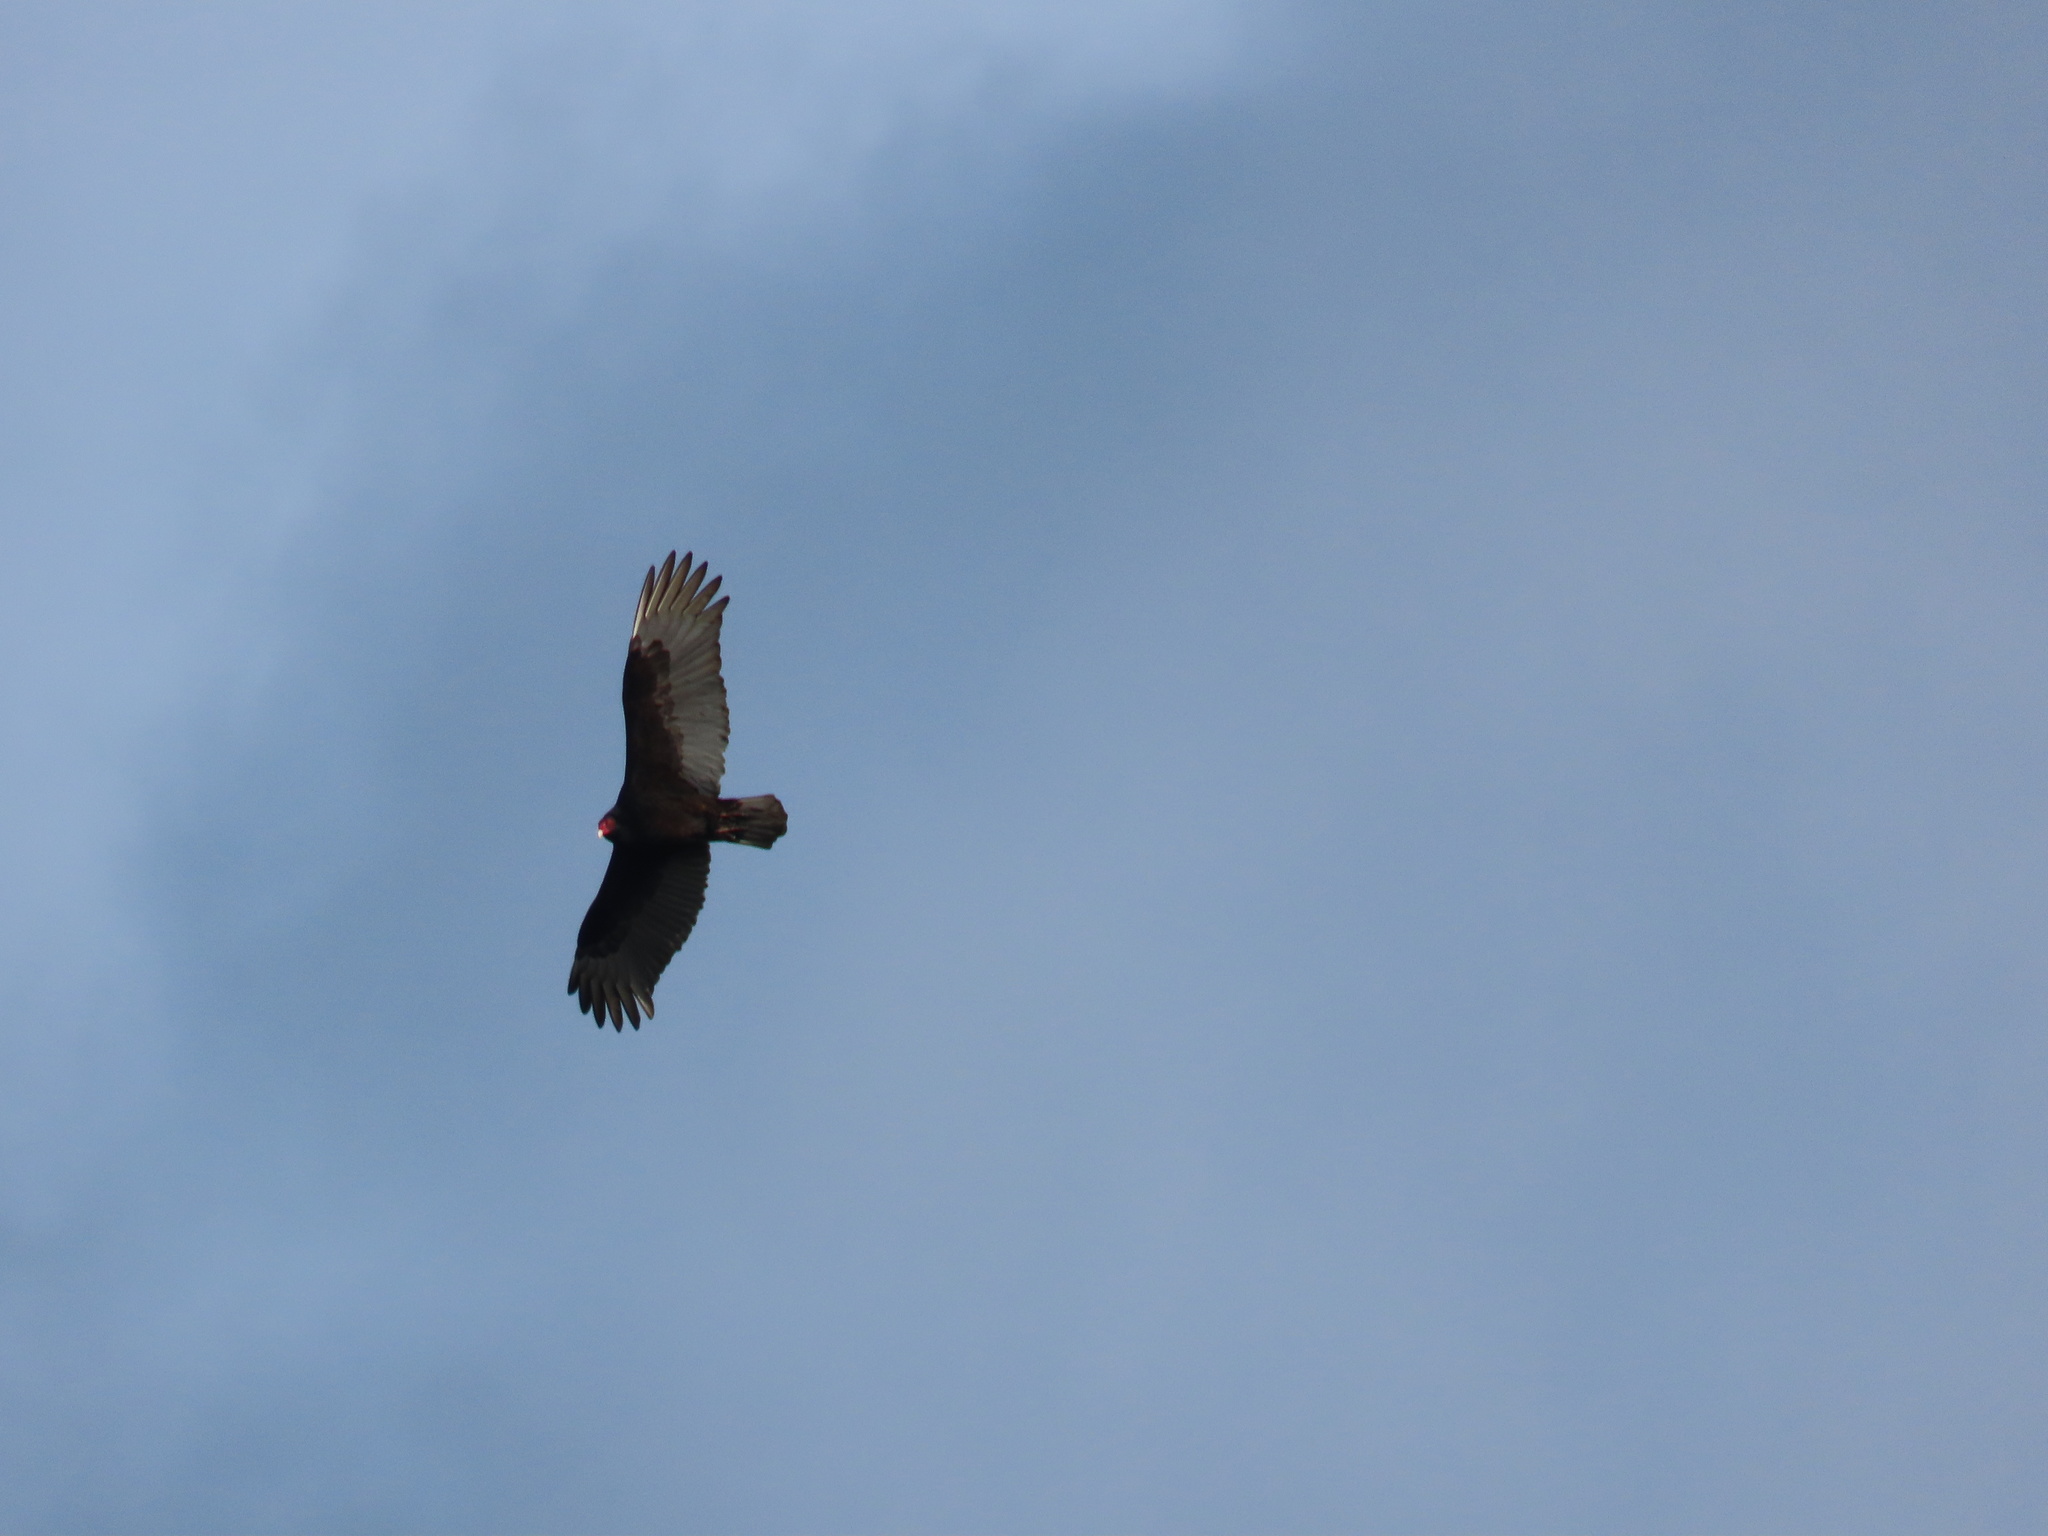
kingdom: Animalia
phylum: Chordata
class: Aves
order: Accipitriformes
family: Cathartidae
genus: Cathartes
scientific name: Cathartes aura
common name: Turkey vulture
